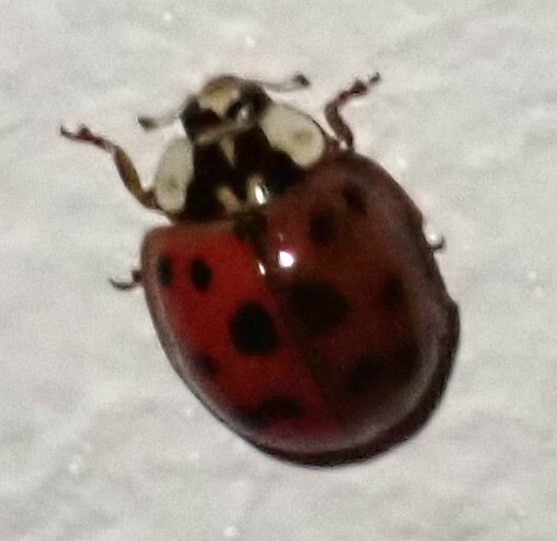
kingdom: Animalia
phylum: Arthropoda
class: Insecta
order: Coleoptera
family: Coccinellidae
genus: Harmonia
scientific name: Harmonia axyridis
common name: Harlequin ladybird
